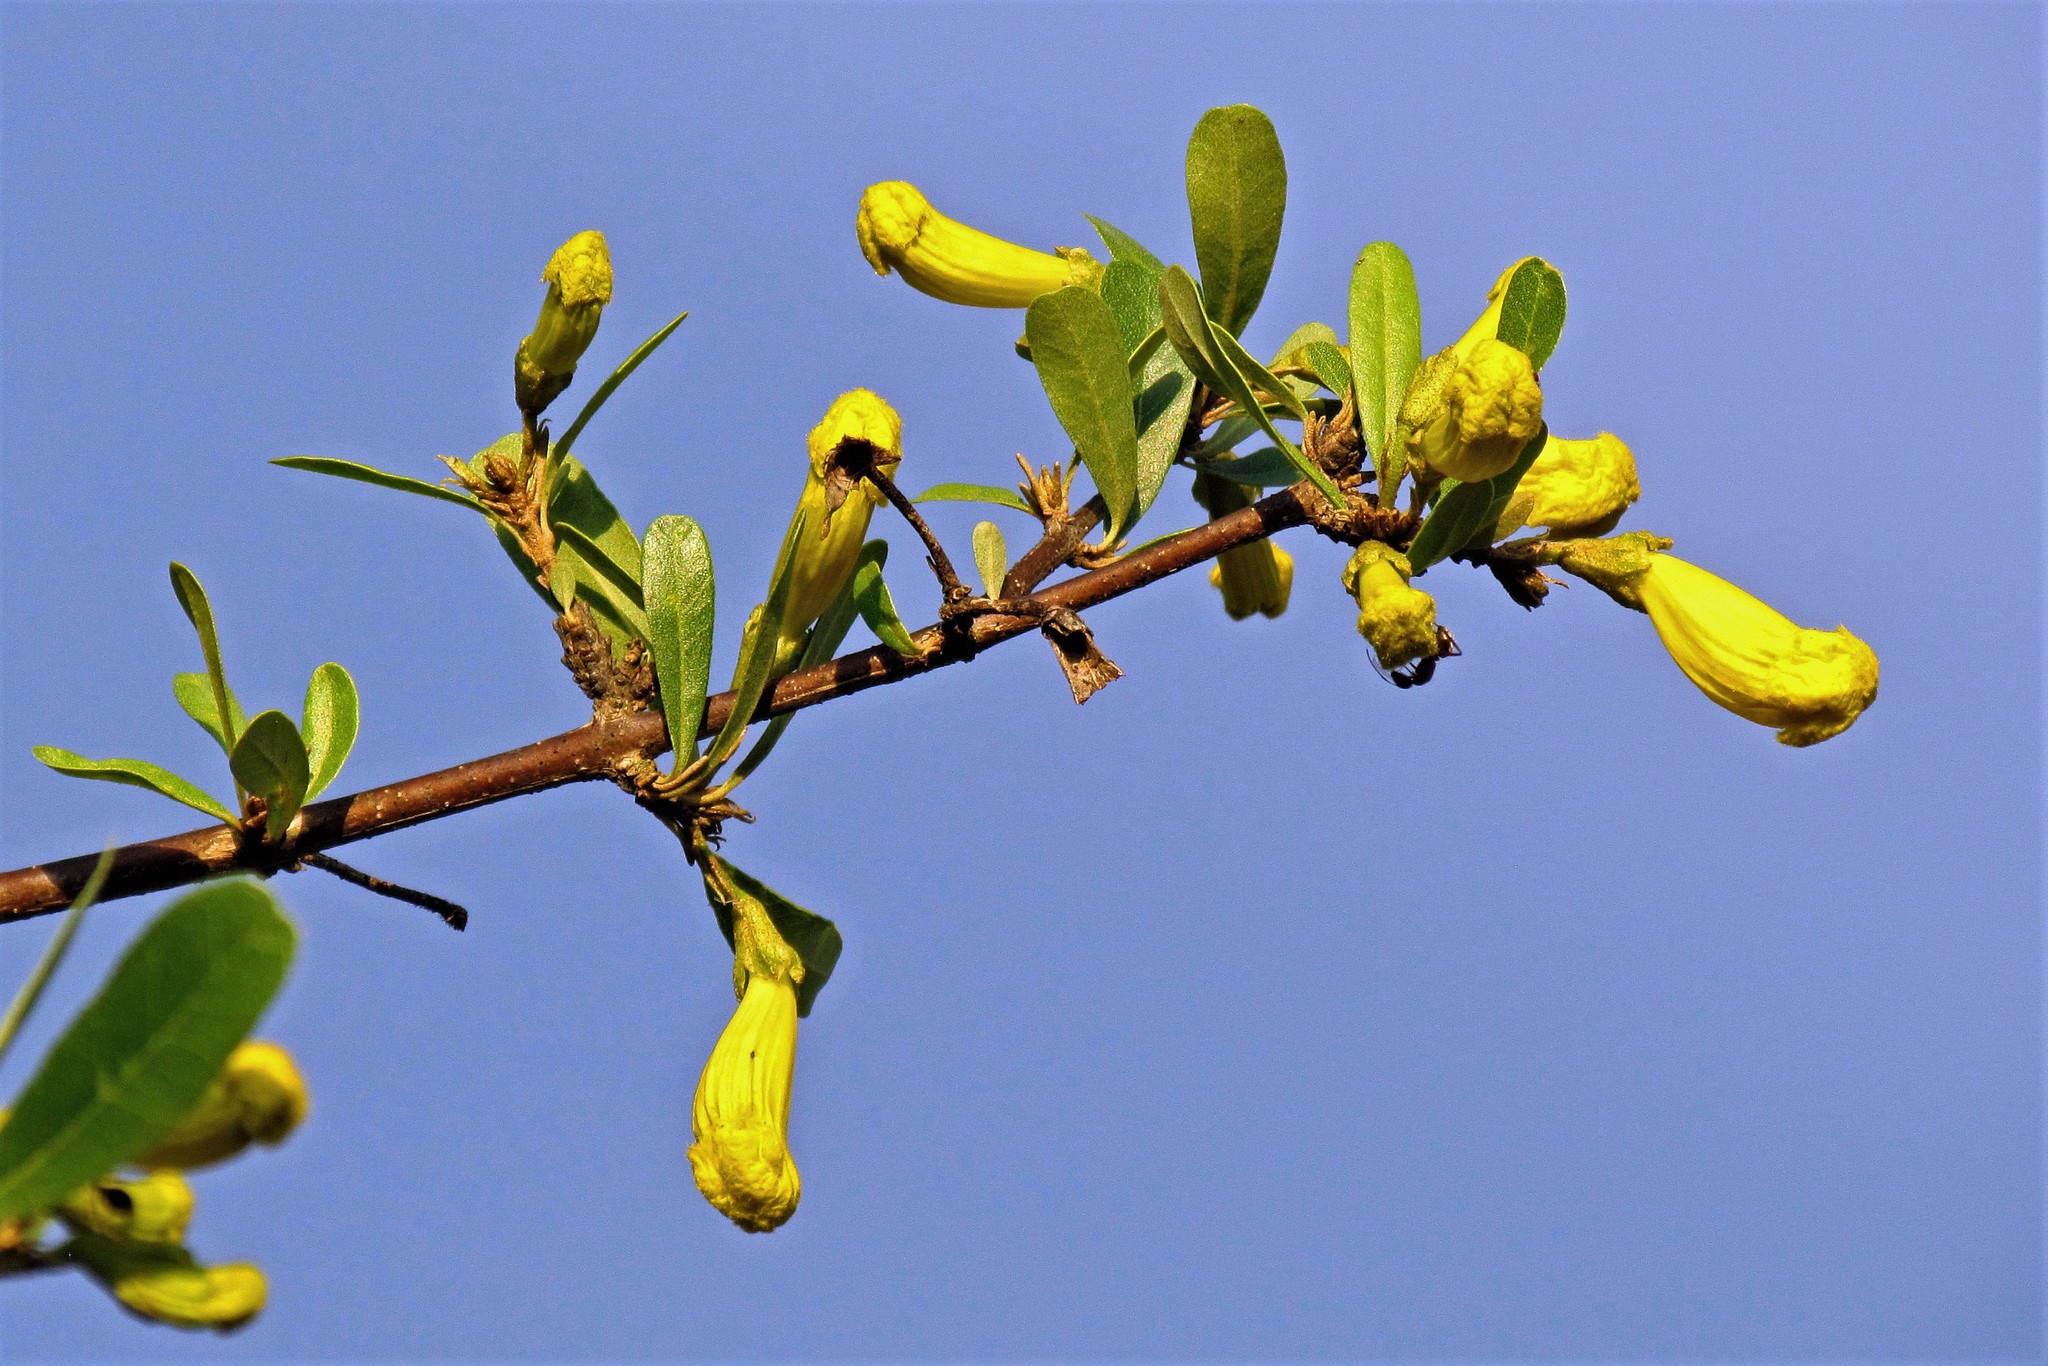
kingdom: Plantae
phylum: Tracheophyta
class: Magnoliopsida
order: Lamiales
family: Bignoniaceae
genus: Tabebuia
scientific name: Tabebuia nodosa
